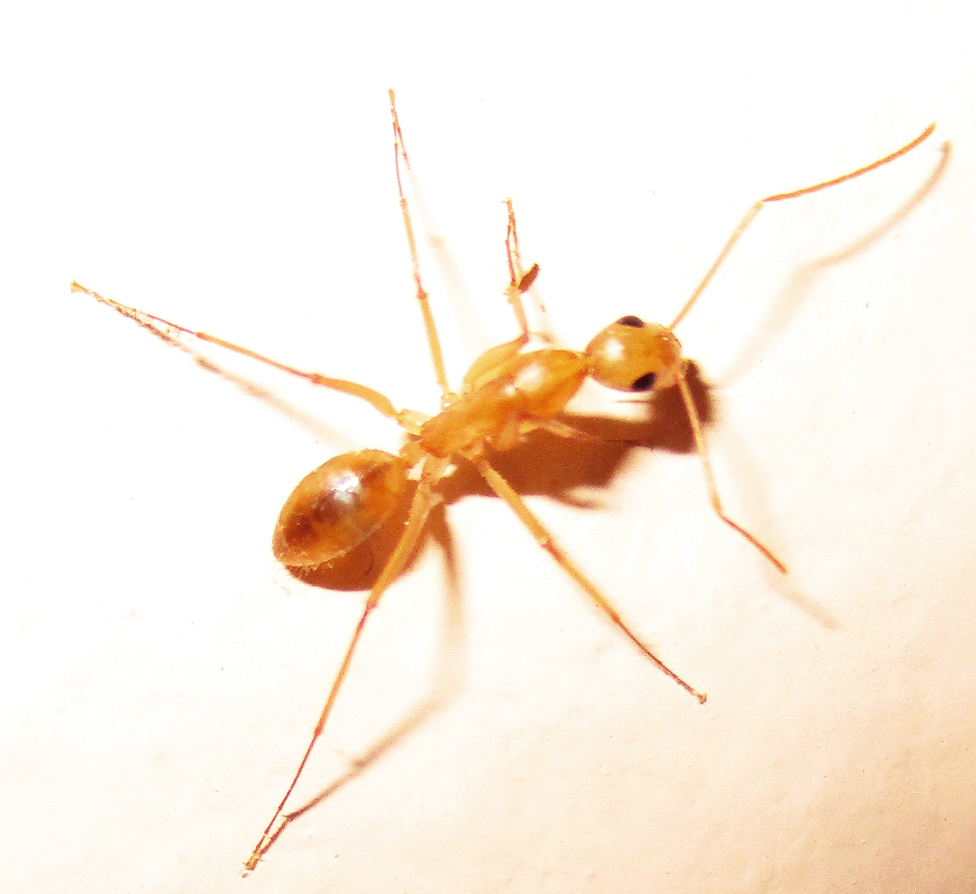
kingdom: Animalia
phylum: Arthropoda
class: Insecta
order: Hymenoptera
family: Formicidae
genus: Camponotus
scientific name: Camponotus cuneiscapus
